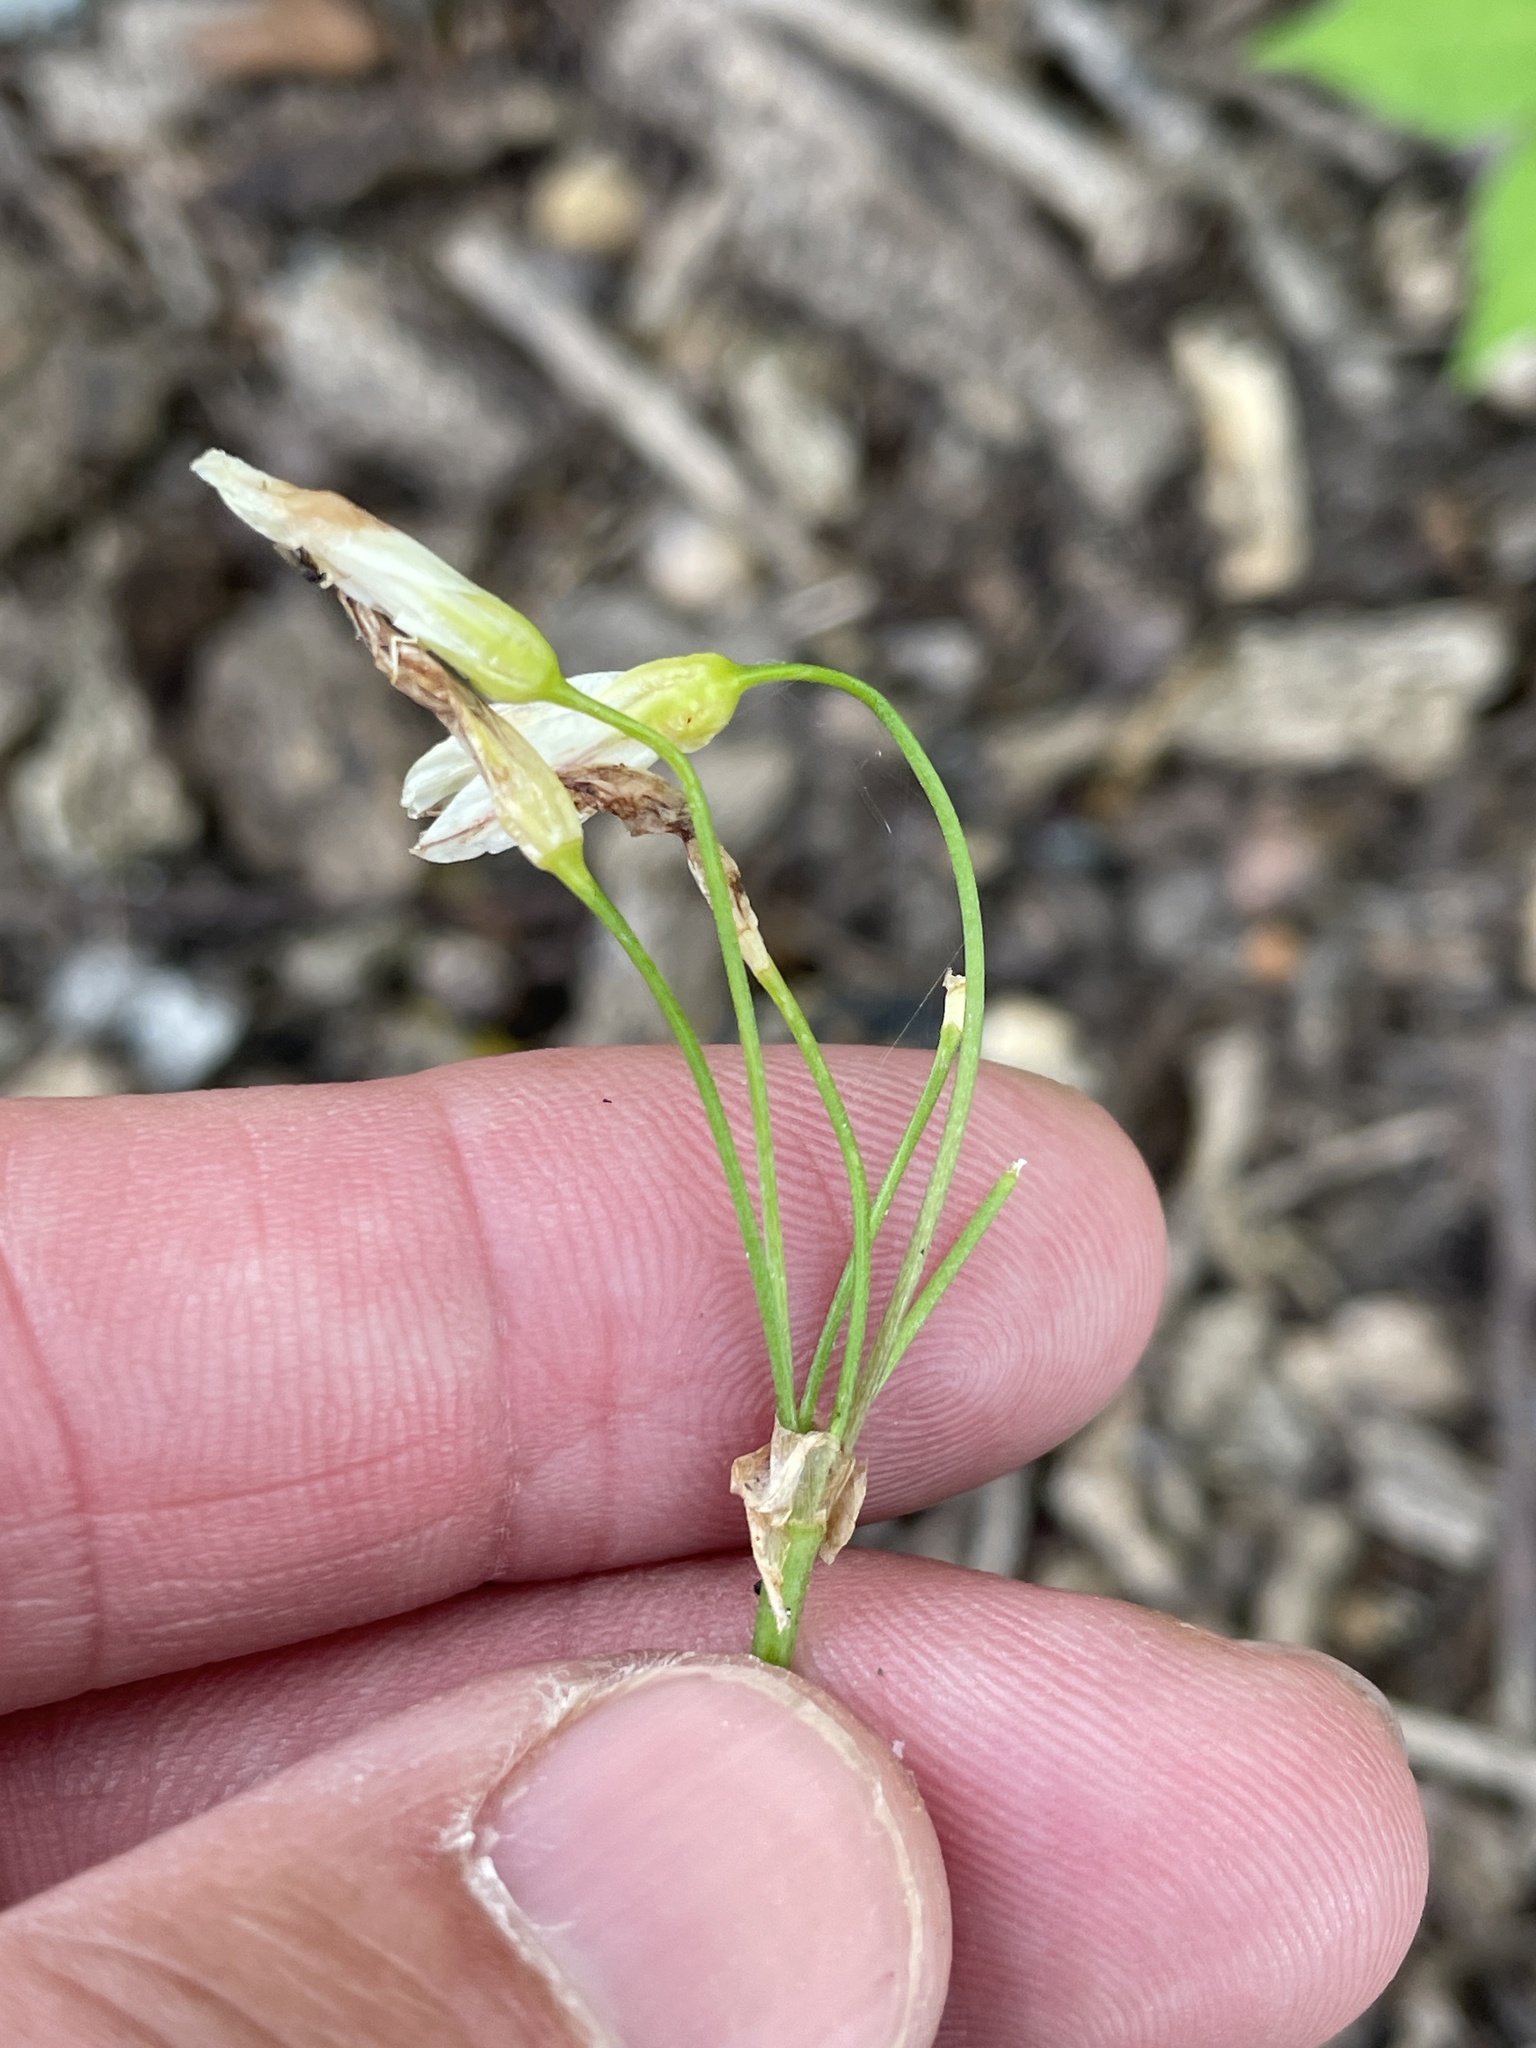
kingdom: Plantae
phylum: Tracheophyta
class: Liliopsida
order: Asparagales
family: Amaryllidaceae
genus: Nothoscordum
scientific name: Nothoscordum bivalve
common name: Crow-poison
